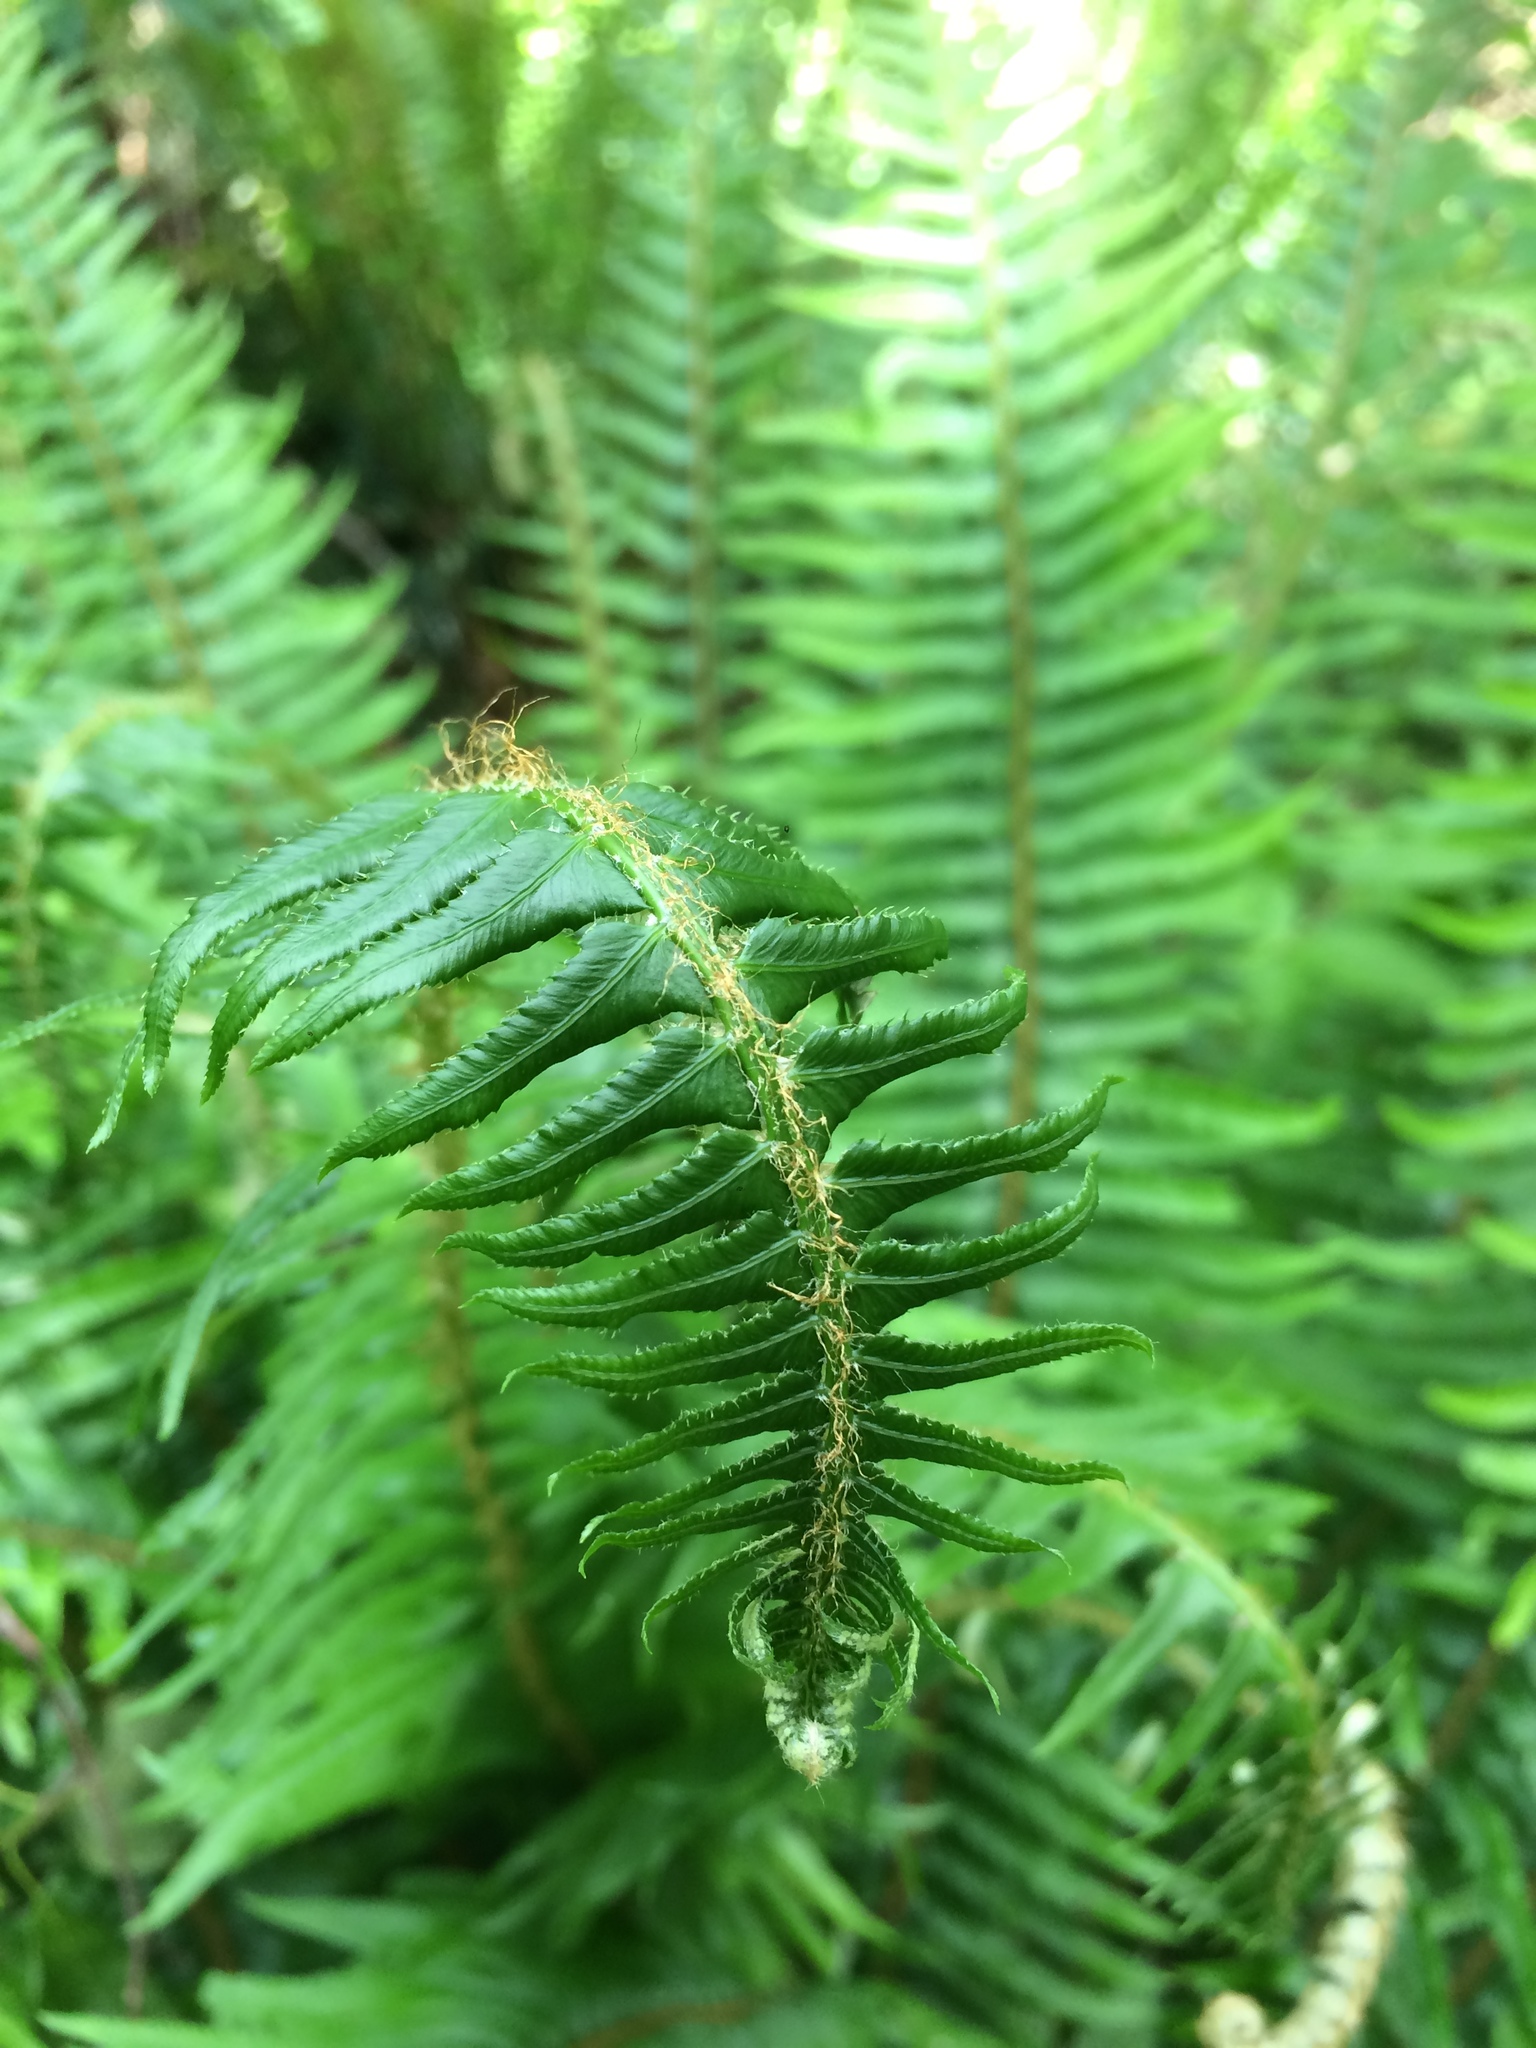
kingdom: Plantae
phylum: Tracheophyta
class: Polypodiopsida
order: Polypodiales
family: Dryopteridaceae
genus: Polystichum
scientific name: Polystichum munitum
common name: Western sword-fern
